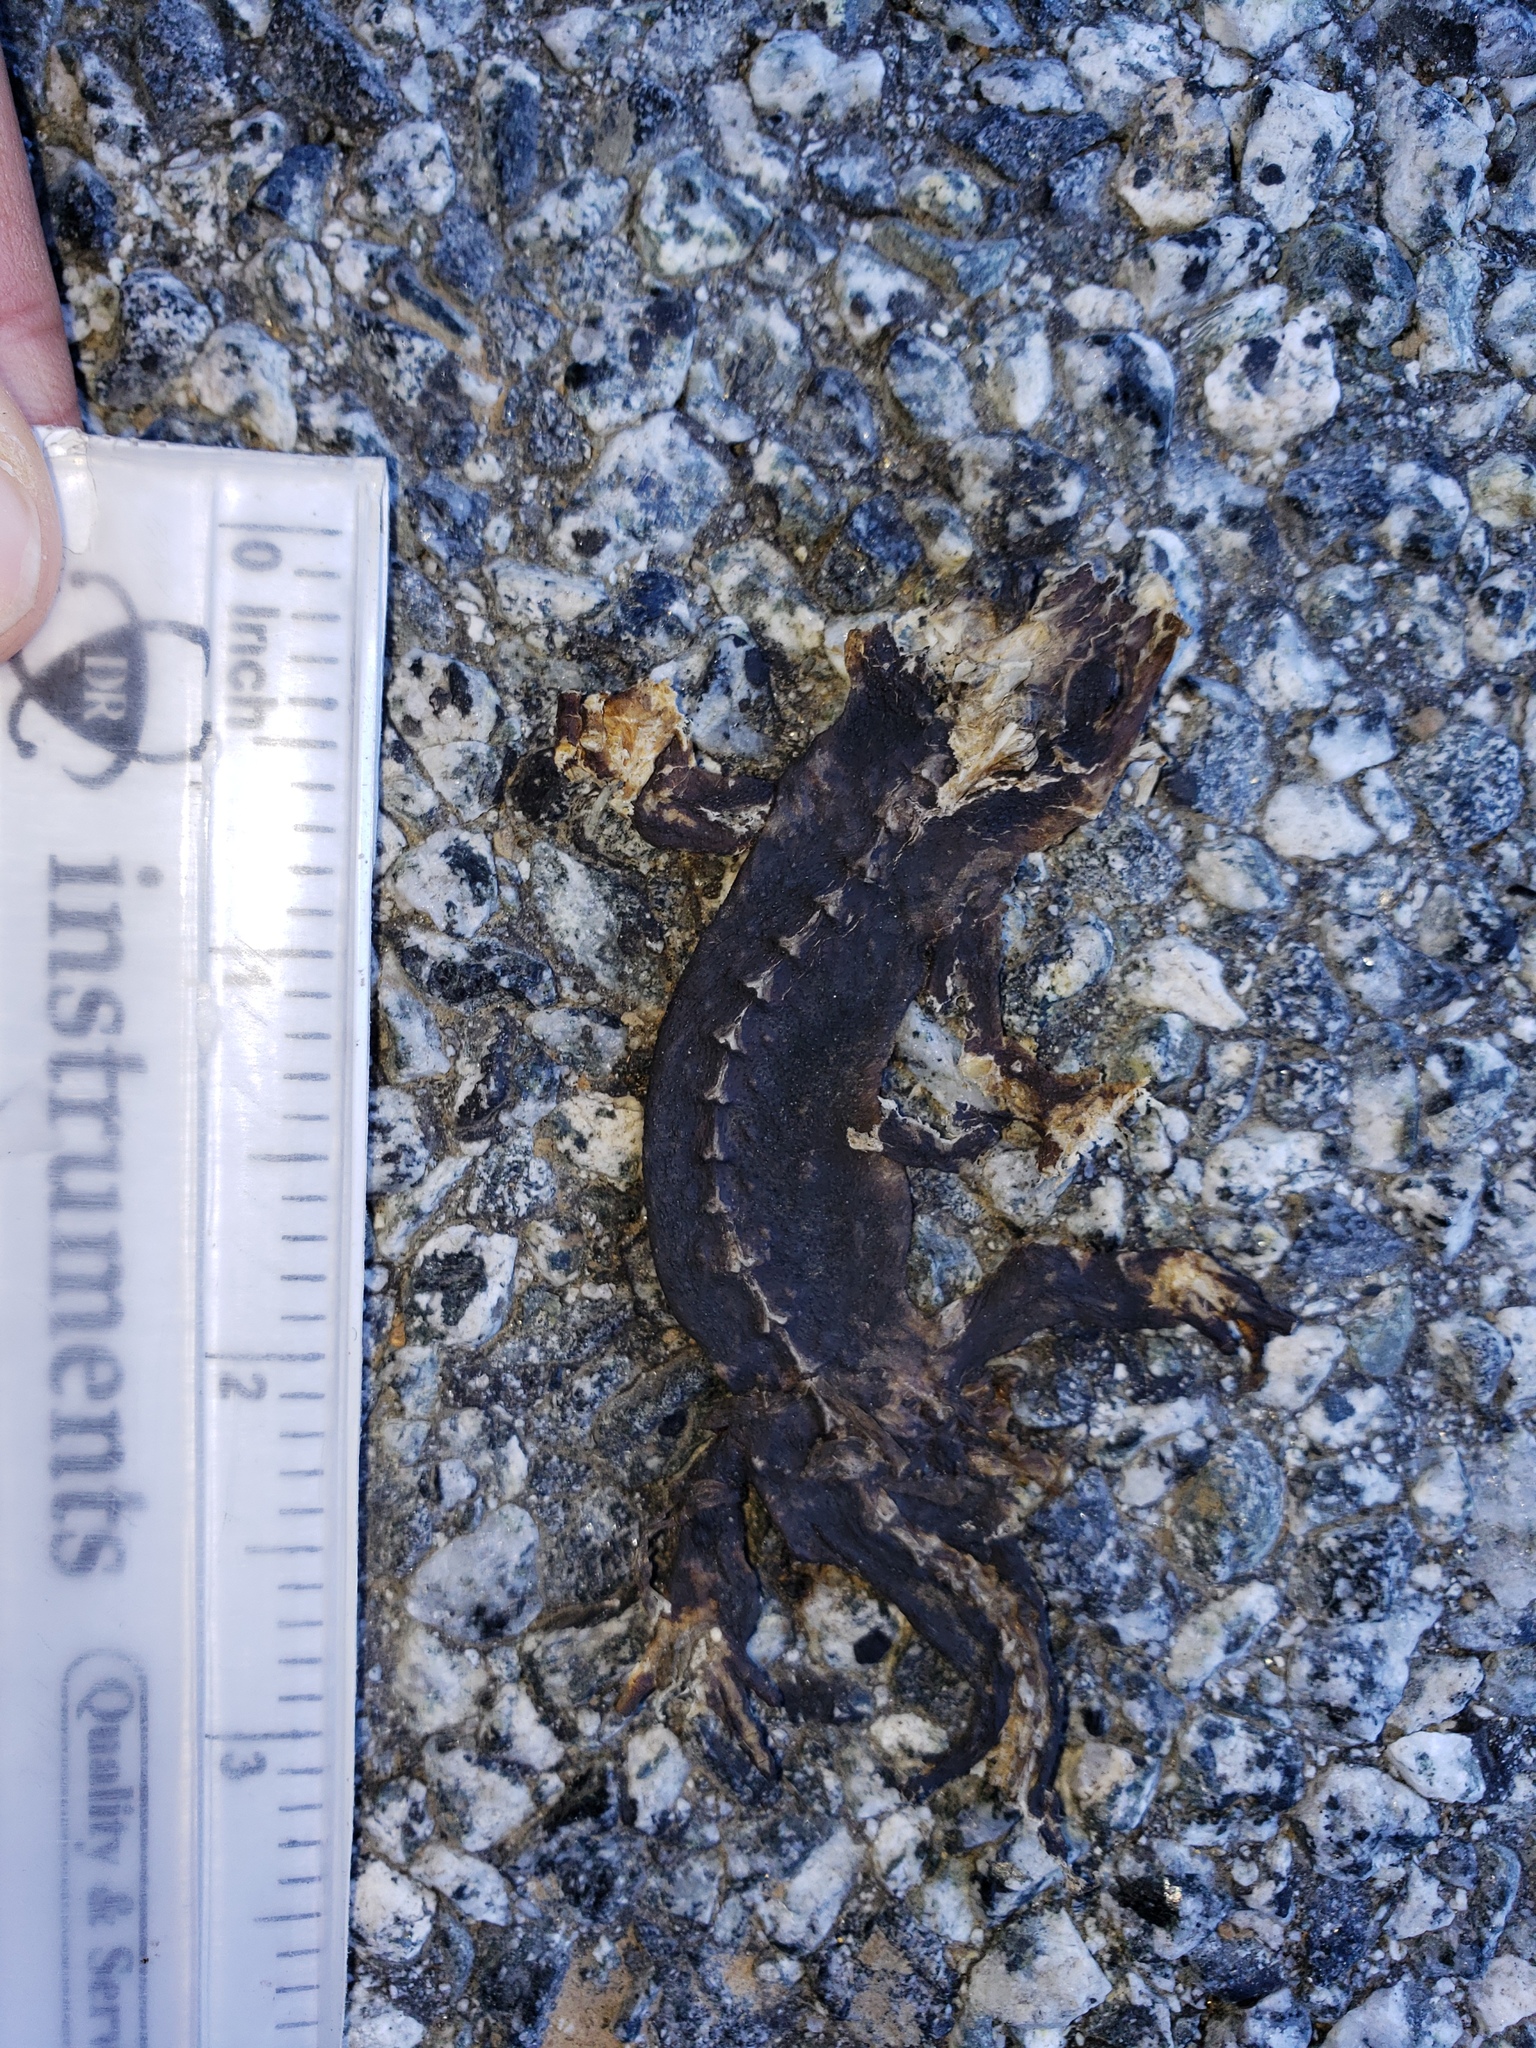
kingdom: Animalia
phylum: Chordata
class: Amphibia
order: Caudata
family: Salamandridae
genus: Taricha
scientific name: Taricha
